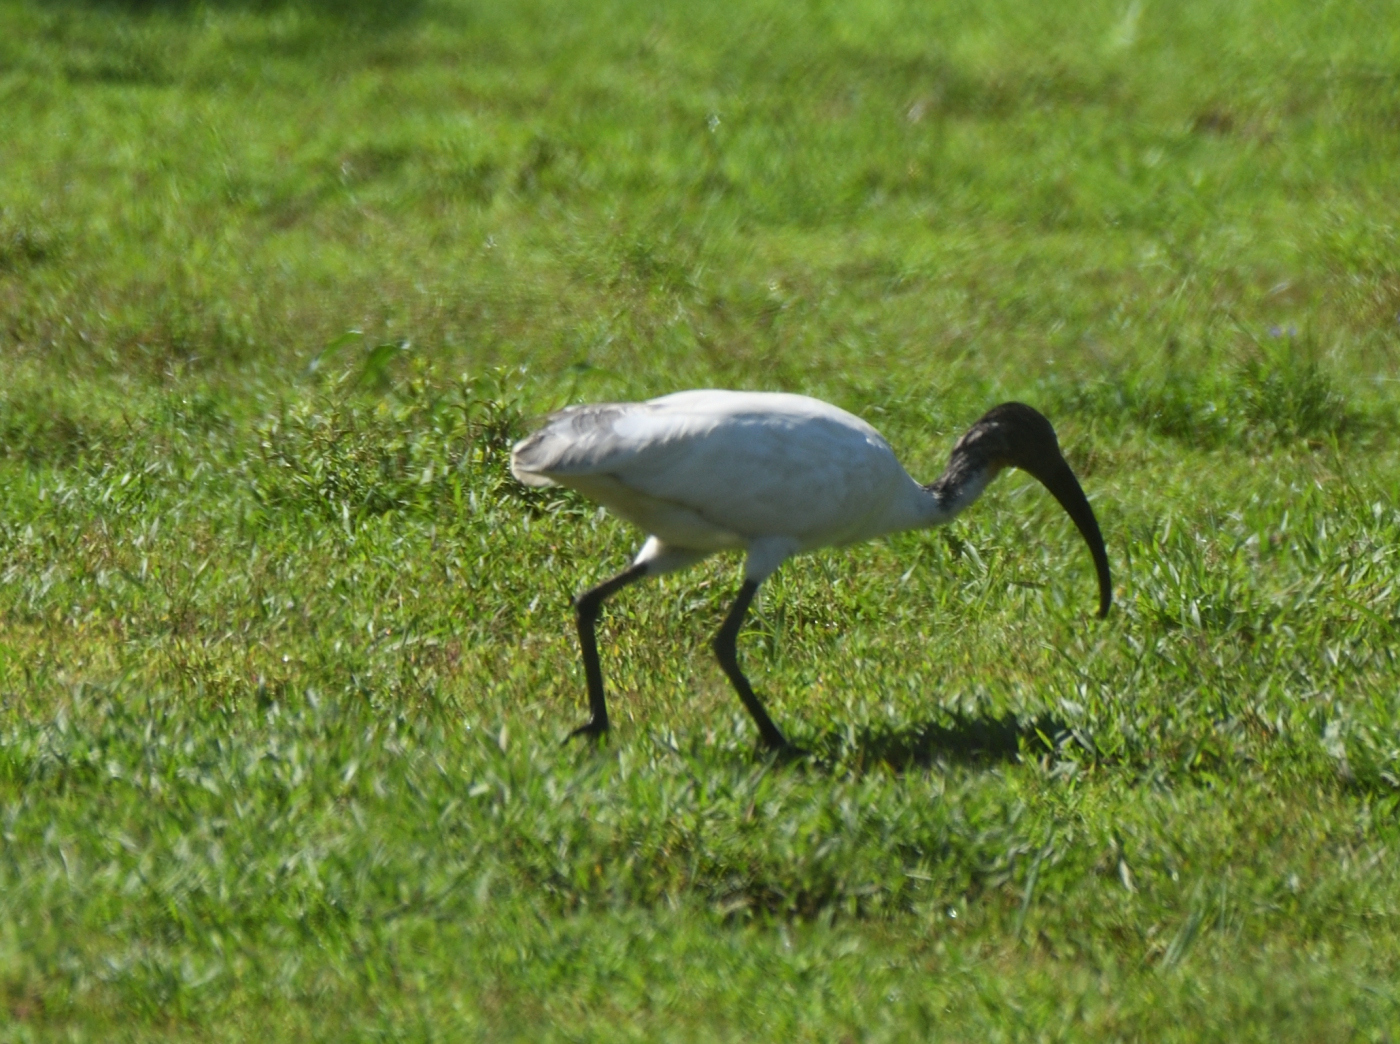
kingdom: Animalia
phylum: Chordata
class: Aves
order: Pelecaniformes
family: Threskiornithidae
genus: Threskiornis
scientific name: Threskiornis melanocephalus
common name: Black-headed ibis
